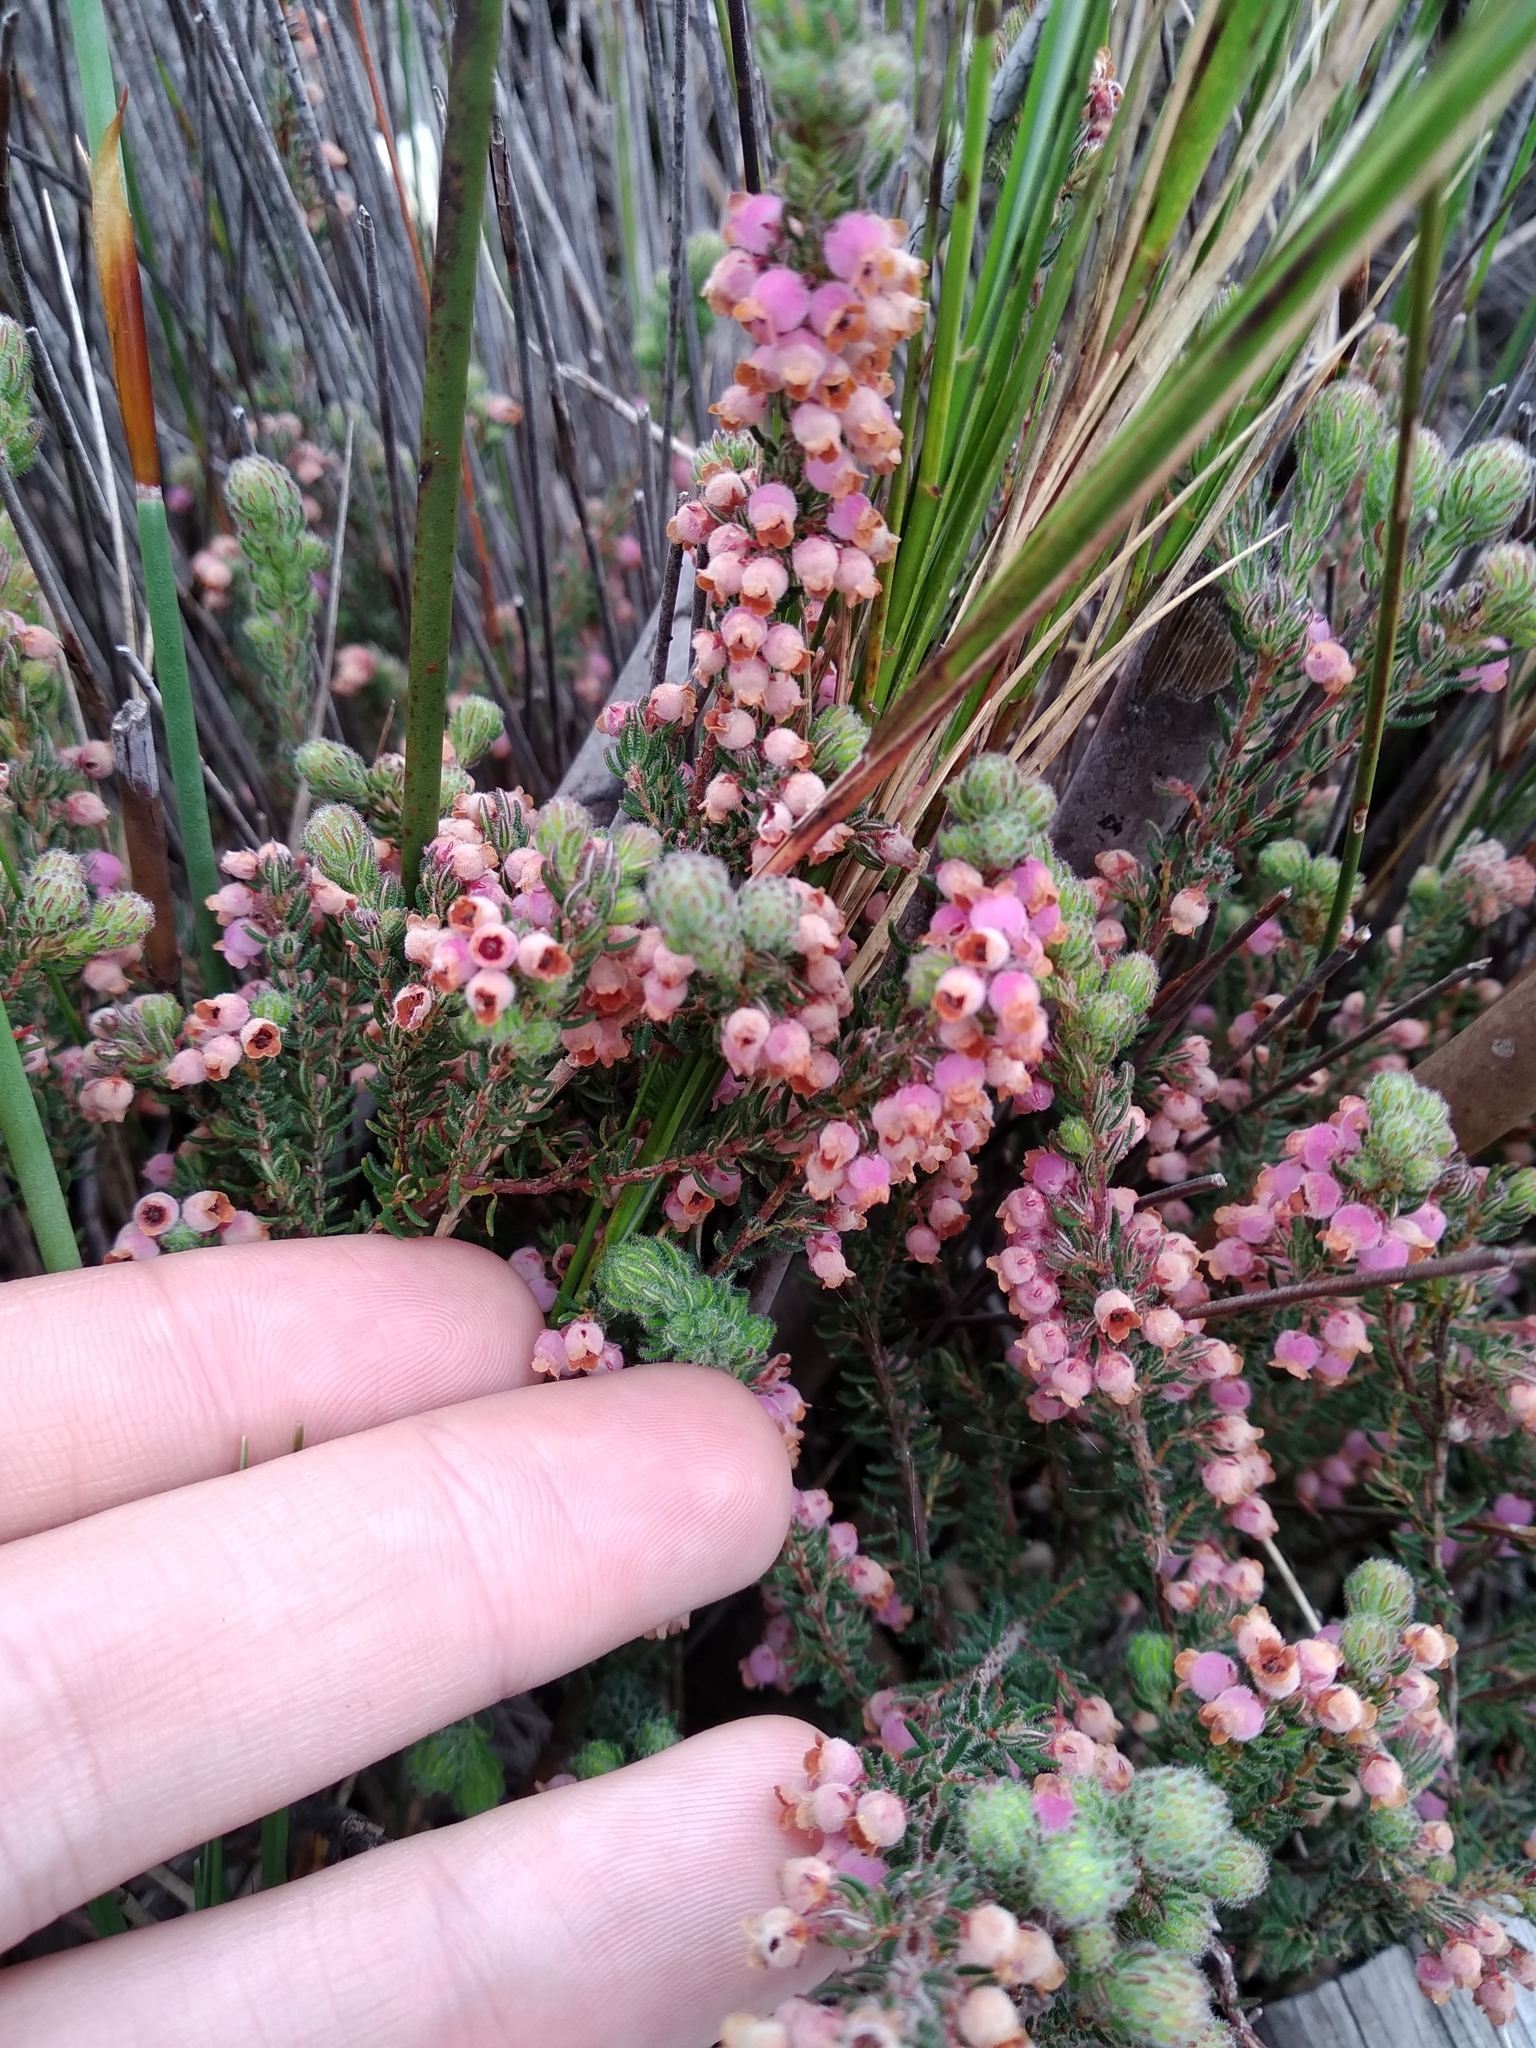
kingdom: Plantae
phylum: Tracheophyta
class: Magnoliopsida
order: Ericales
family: Ericaceae
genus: Erica
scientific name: Erica mollis
